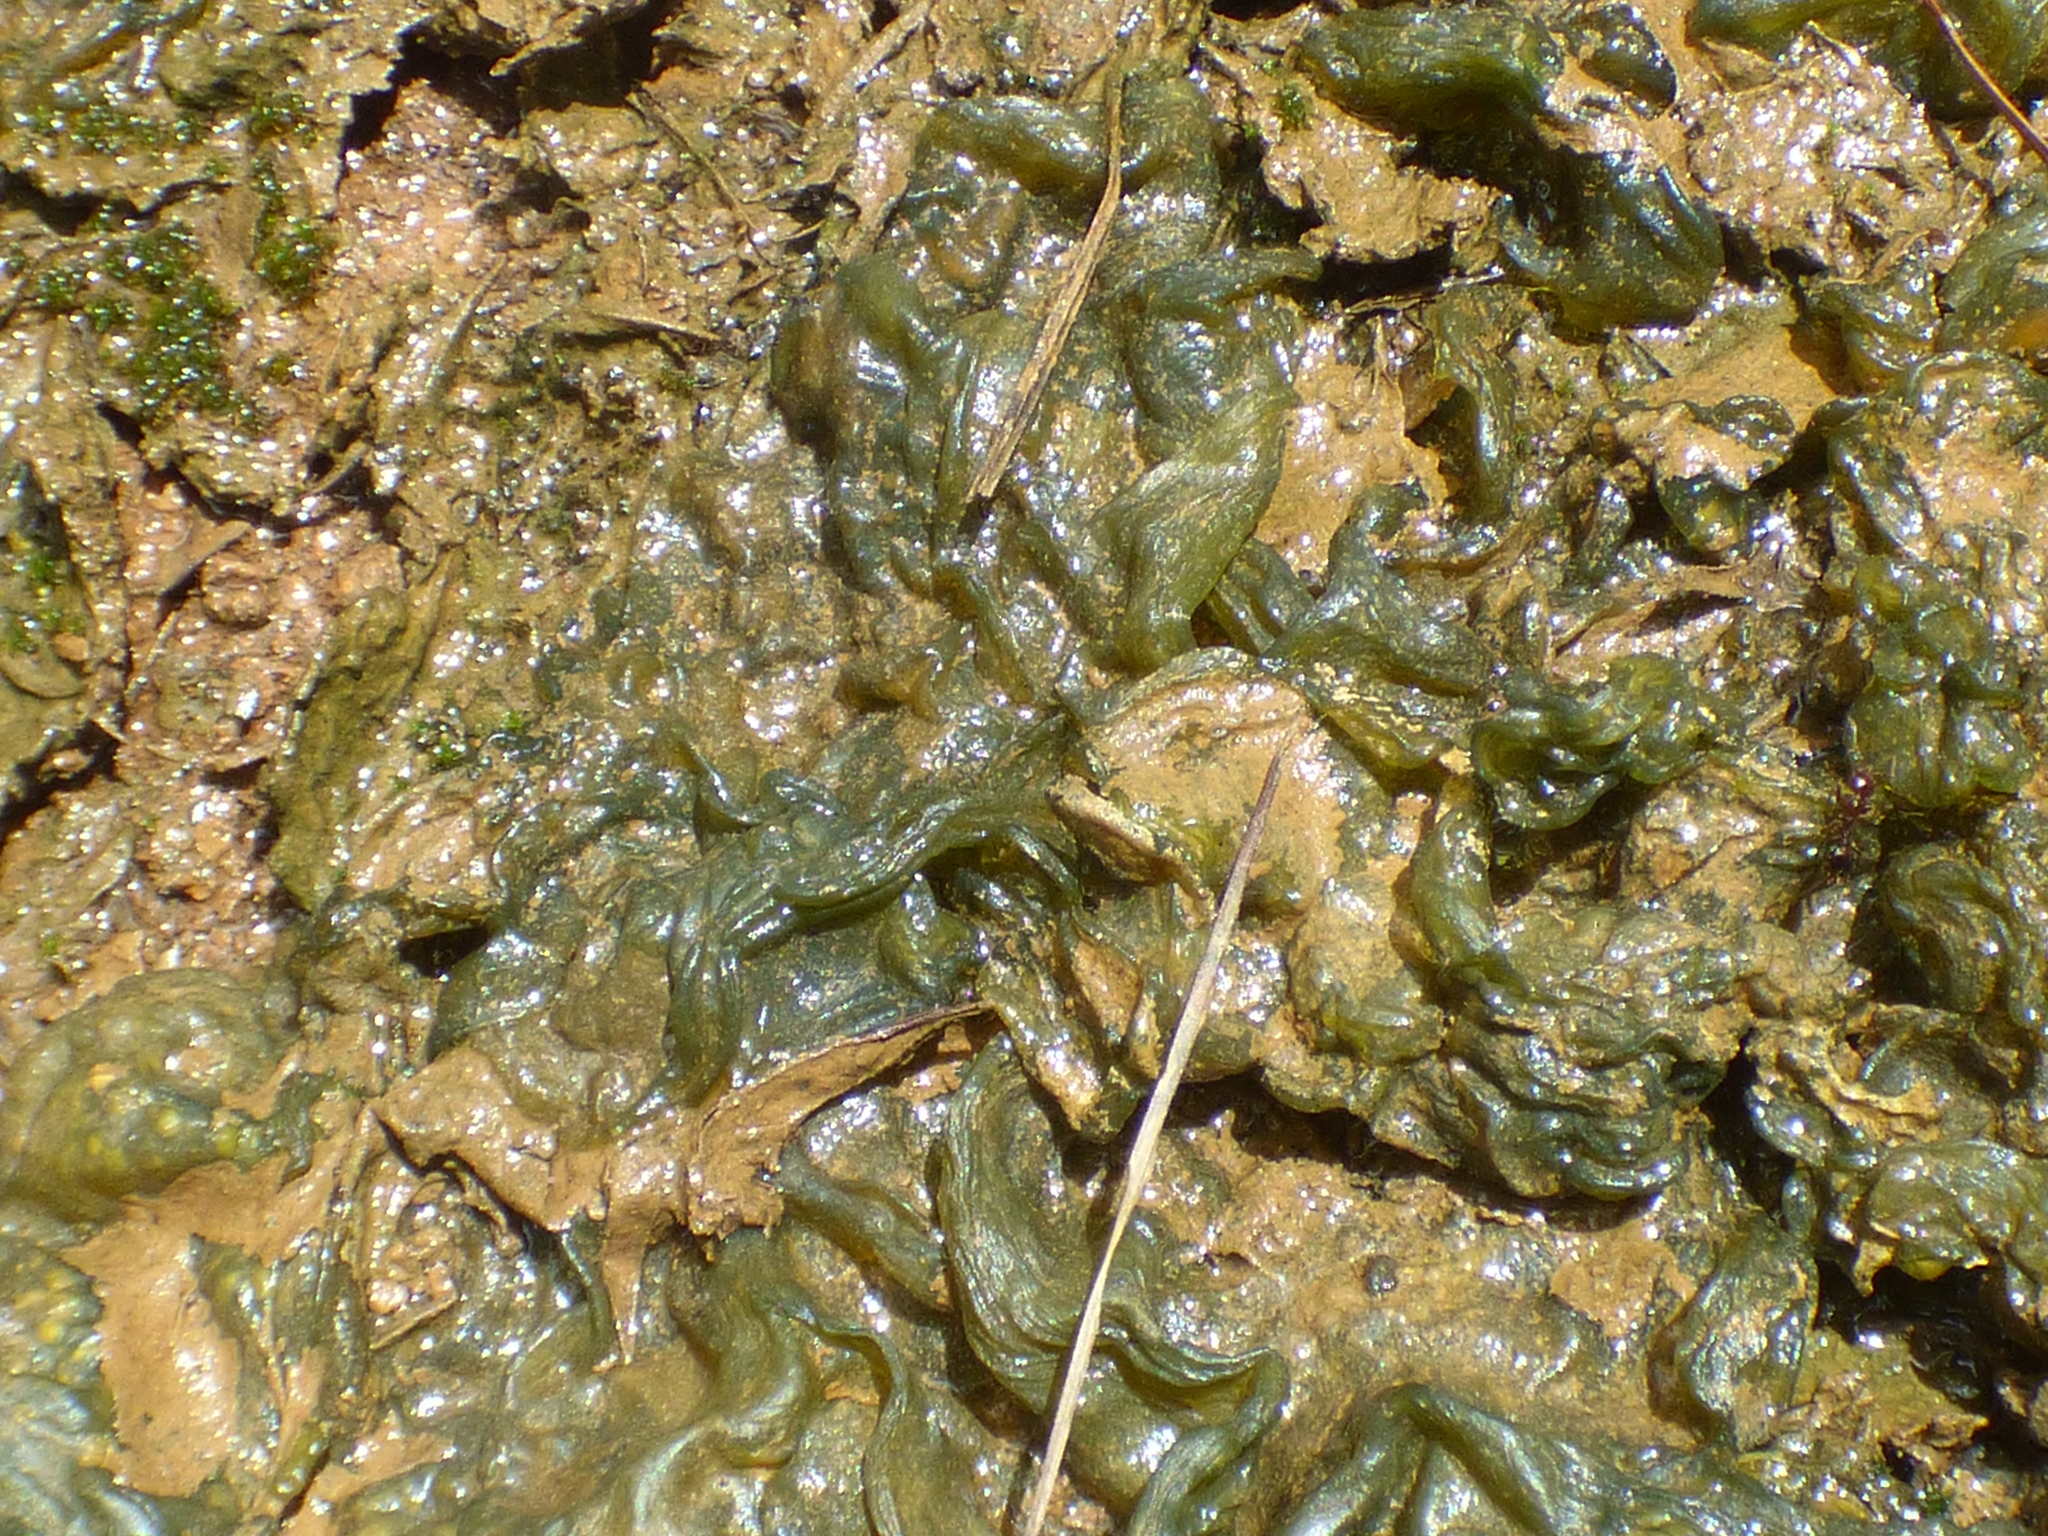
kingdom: Bacteria
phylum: Cyanobacteria
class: Cyanobacteriia
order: Cyanobacteriales
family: Nostocaceae
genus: Nostoc
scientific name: Nostoc commune
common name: Star jelly
